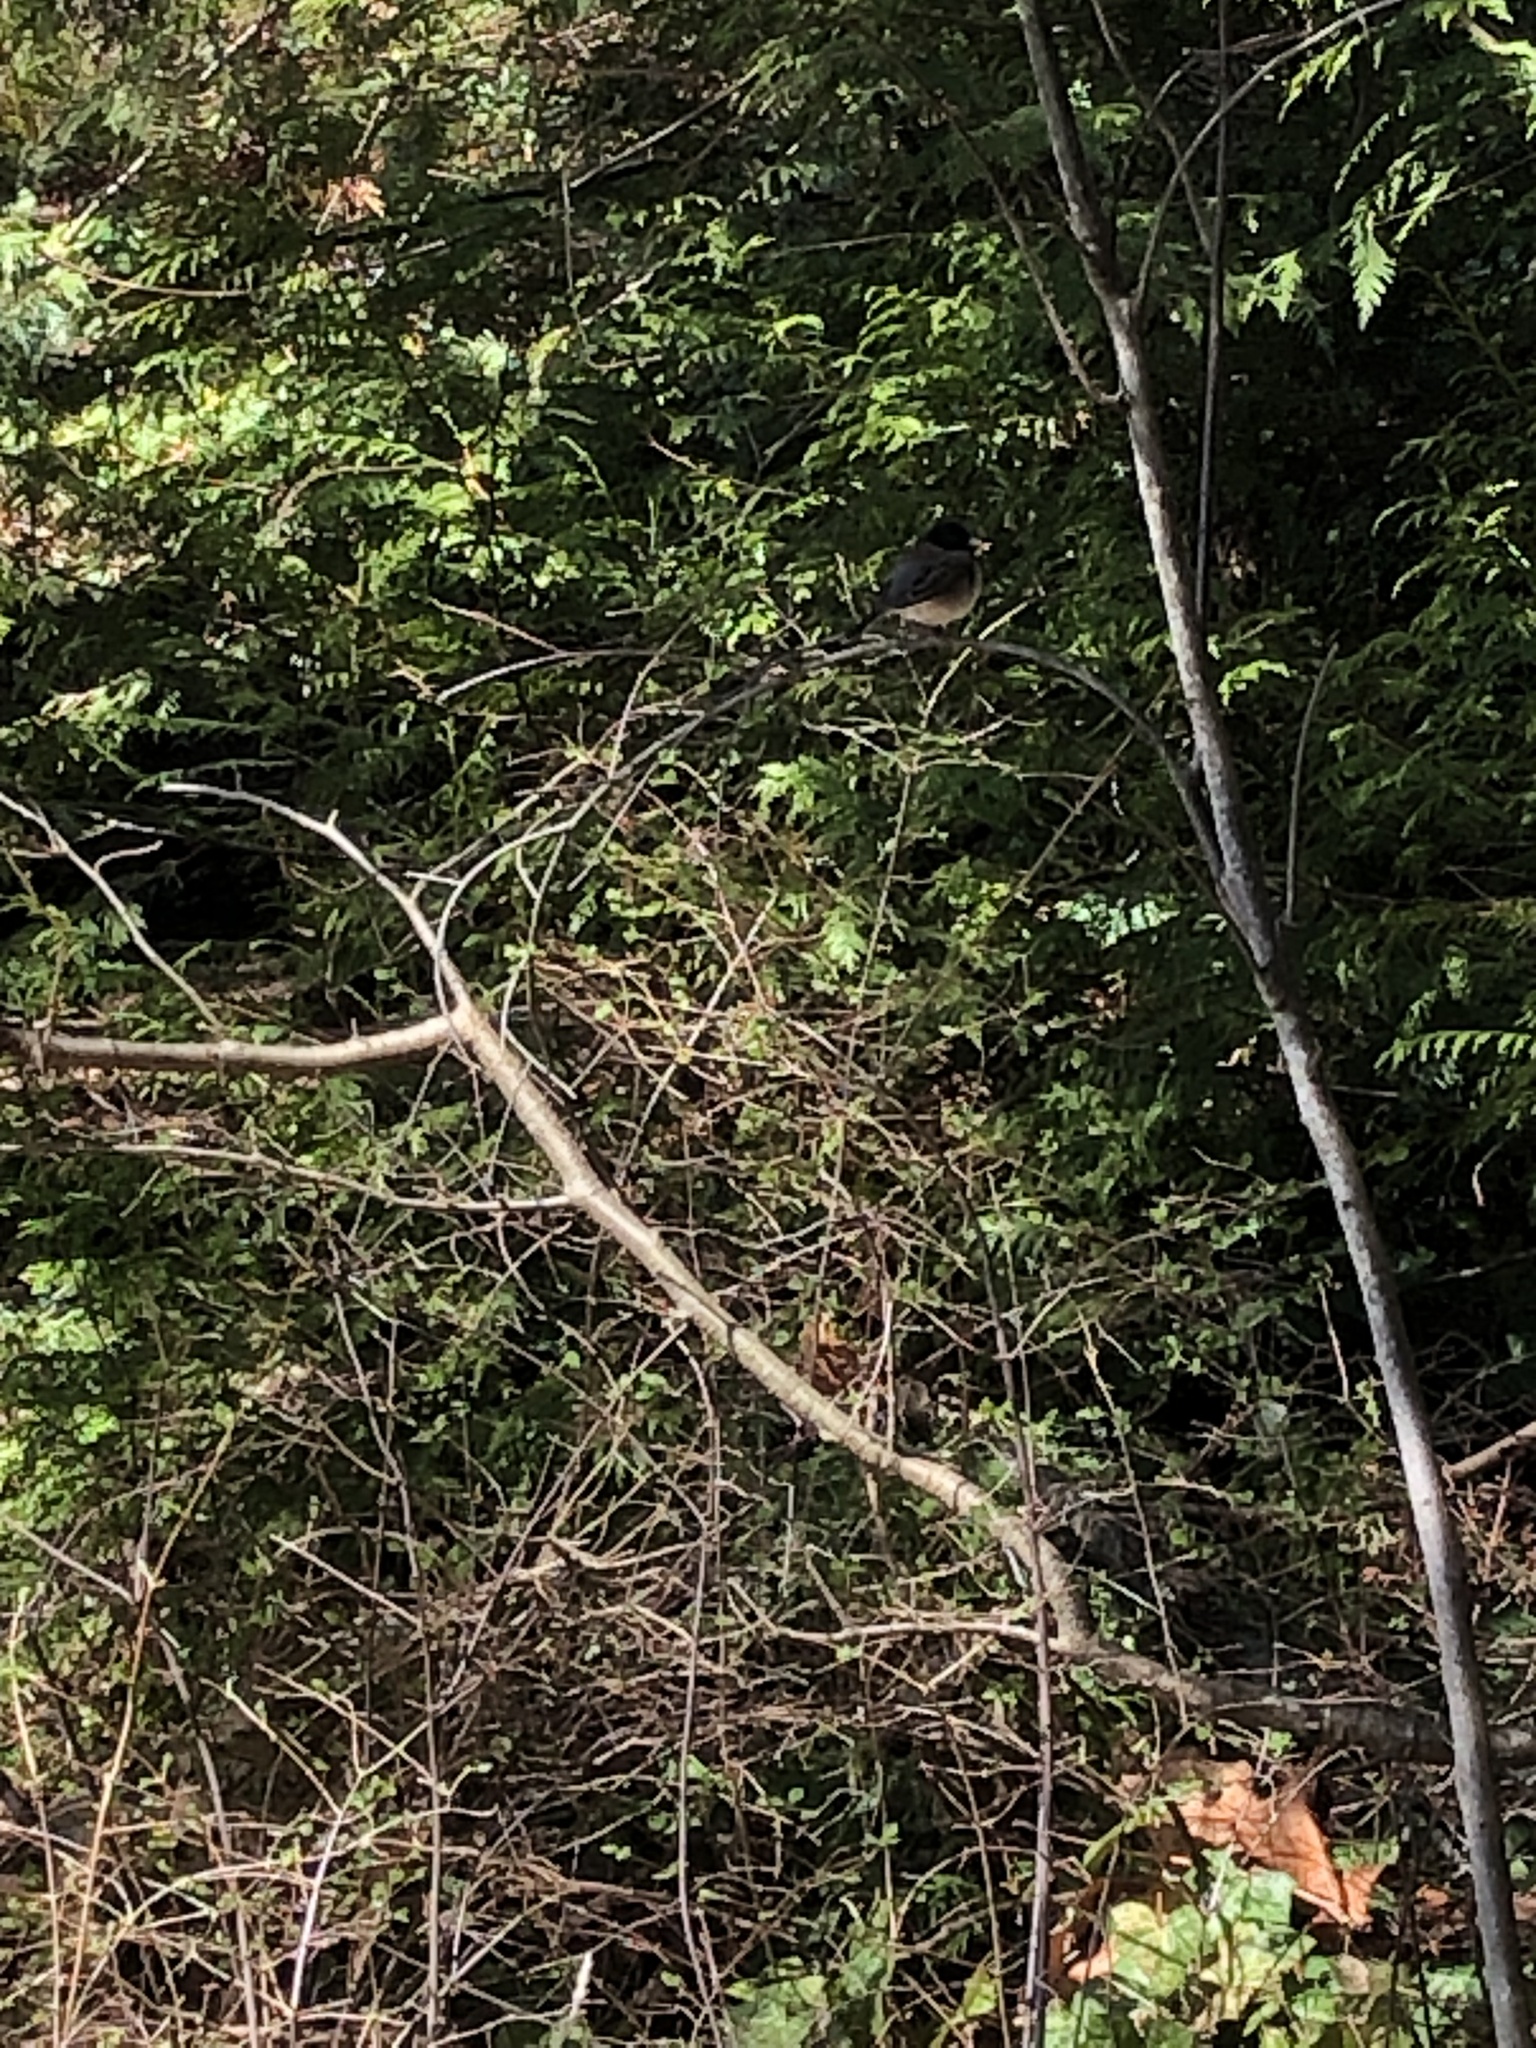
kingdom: Animalia
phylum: Chordata
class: Aves
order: Passeriformes
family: Passerellidae
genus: Junco
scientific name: Junco hyemalis
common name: Dark-eyed junco
